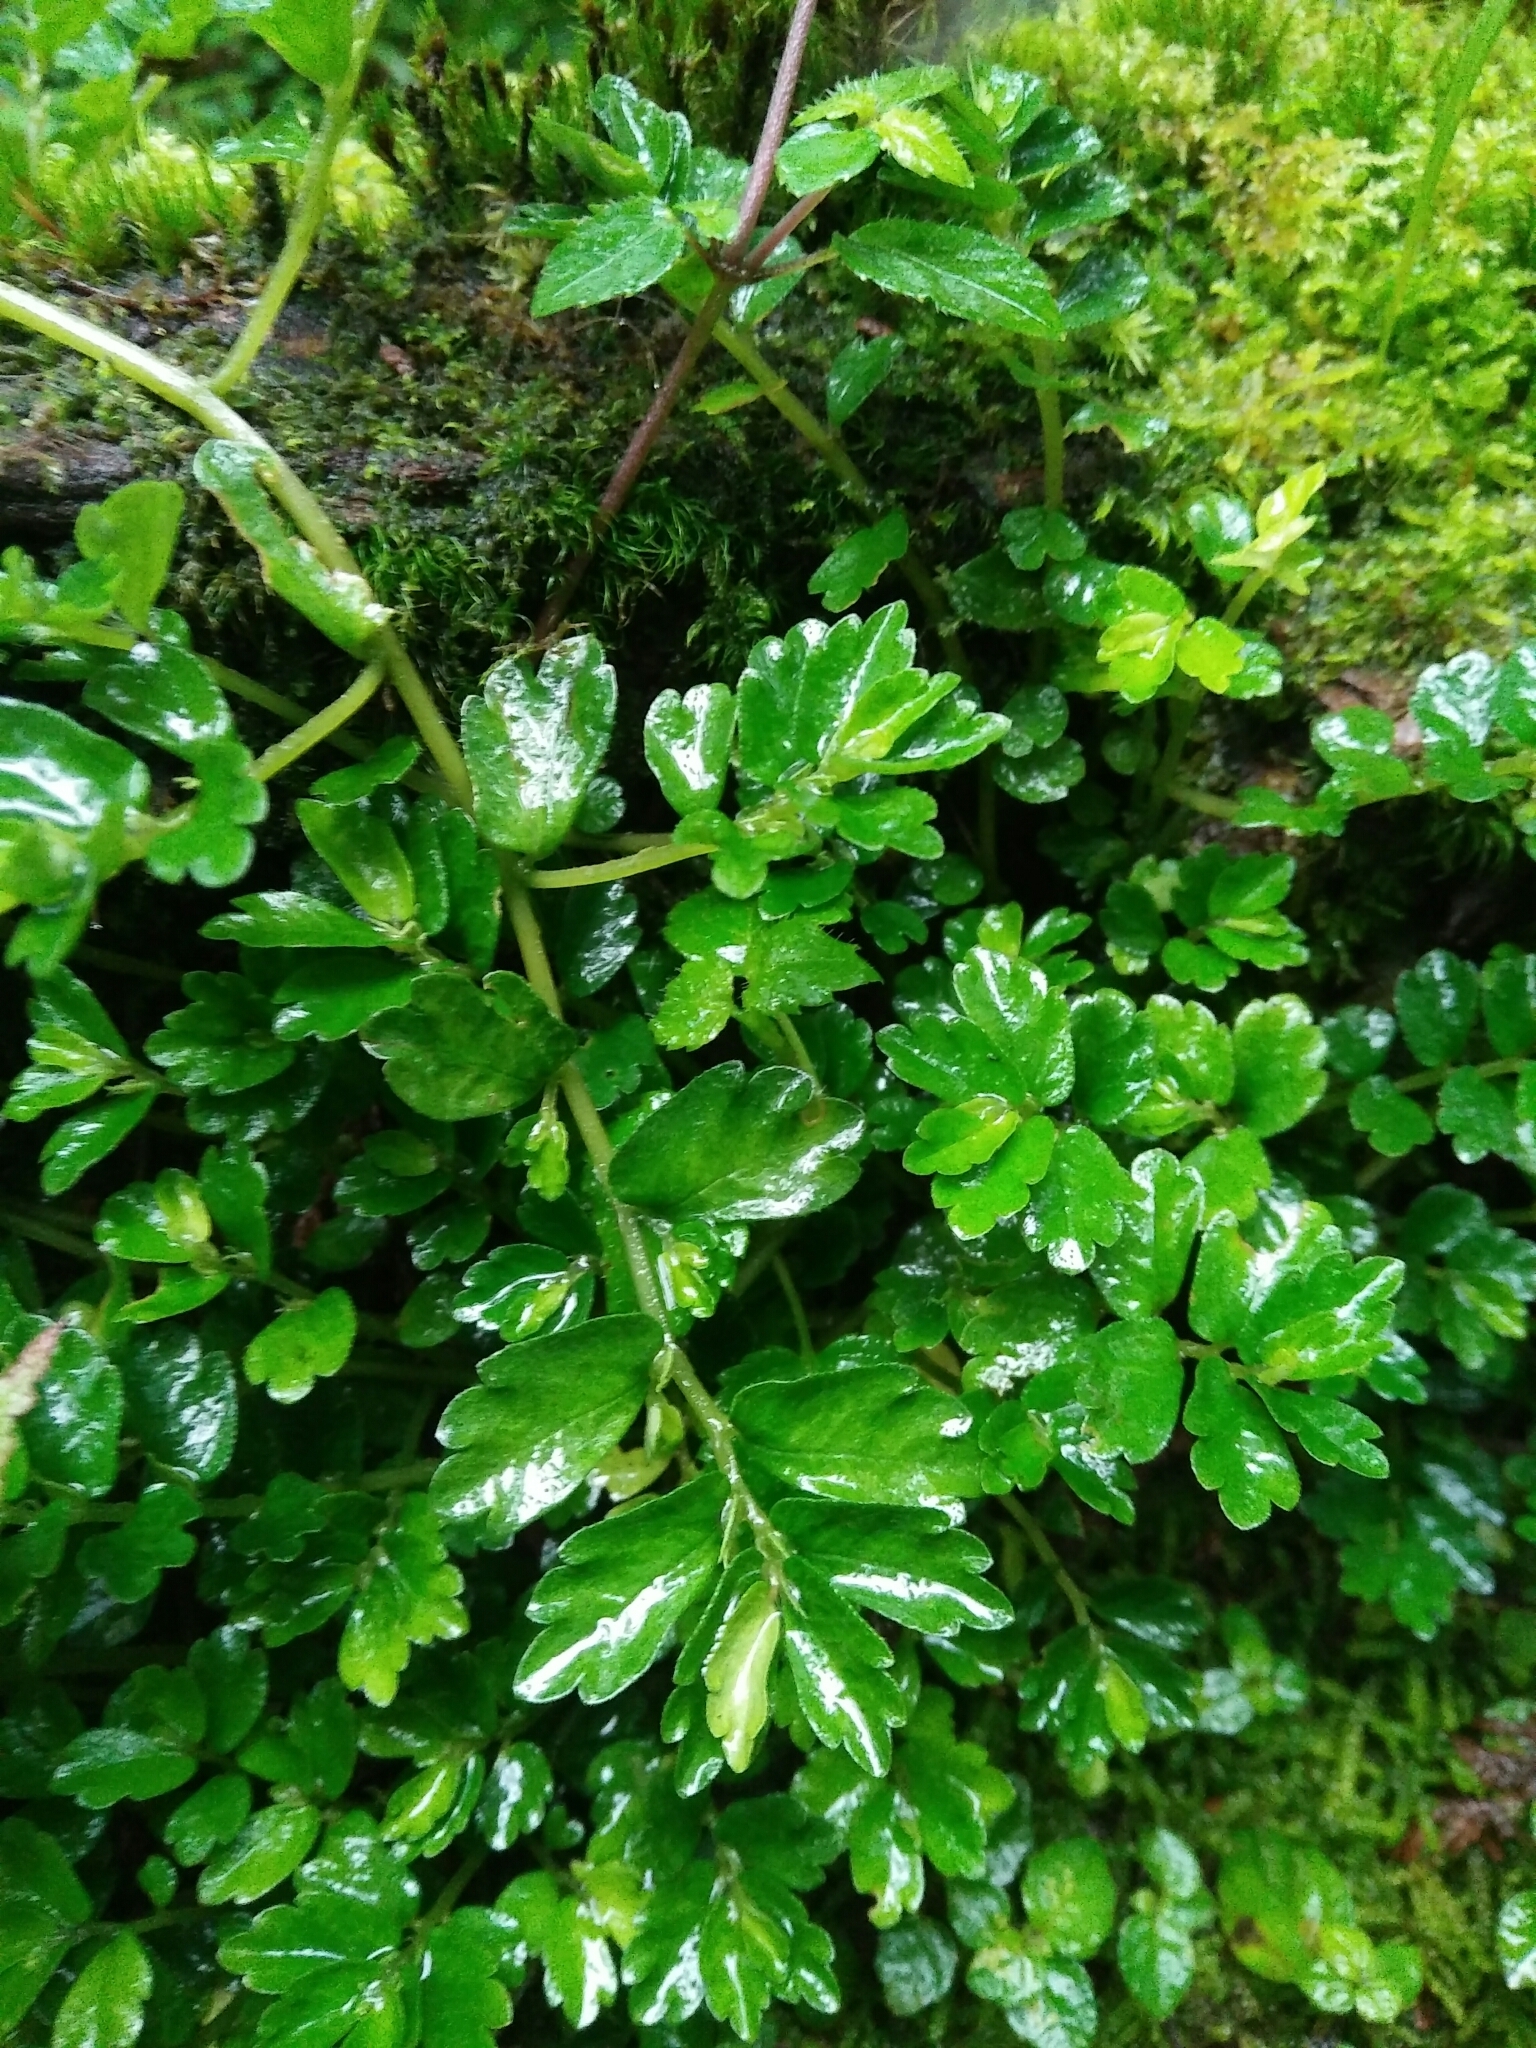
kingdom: Plantae
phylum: Tracheophyta
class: Magnoliopsida
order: Rosales
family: Urticaceae
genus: Elatostema
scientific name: Elatostema obtusum
